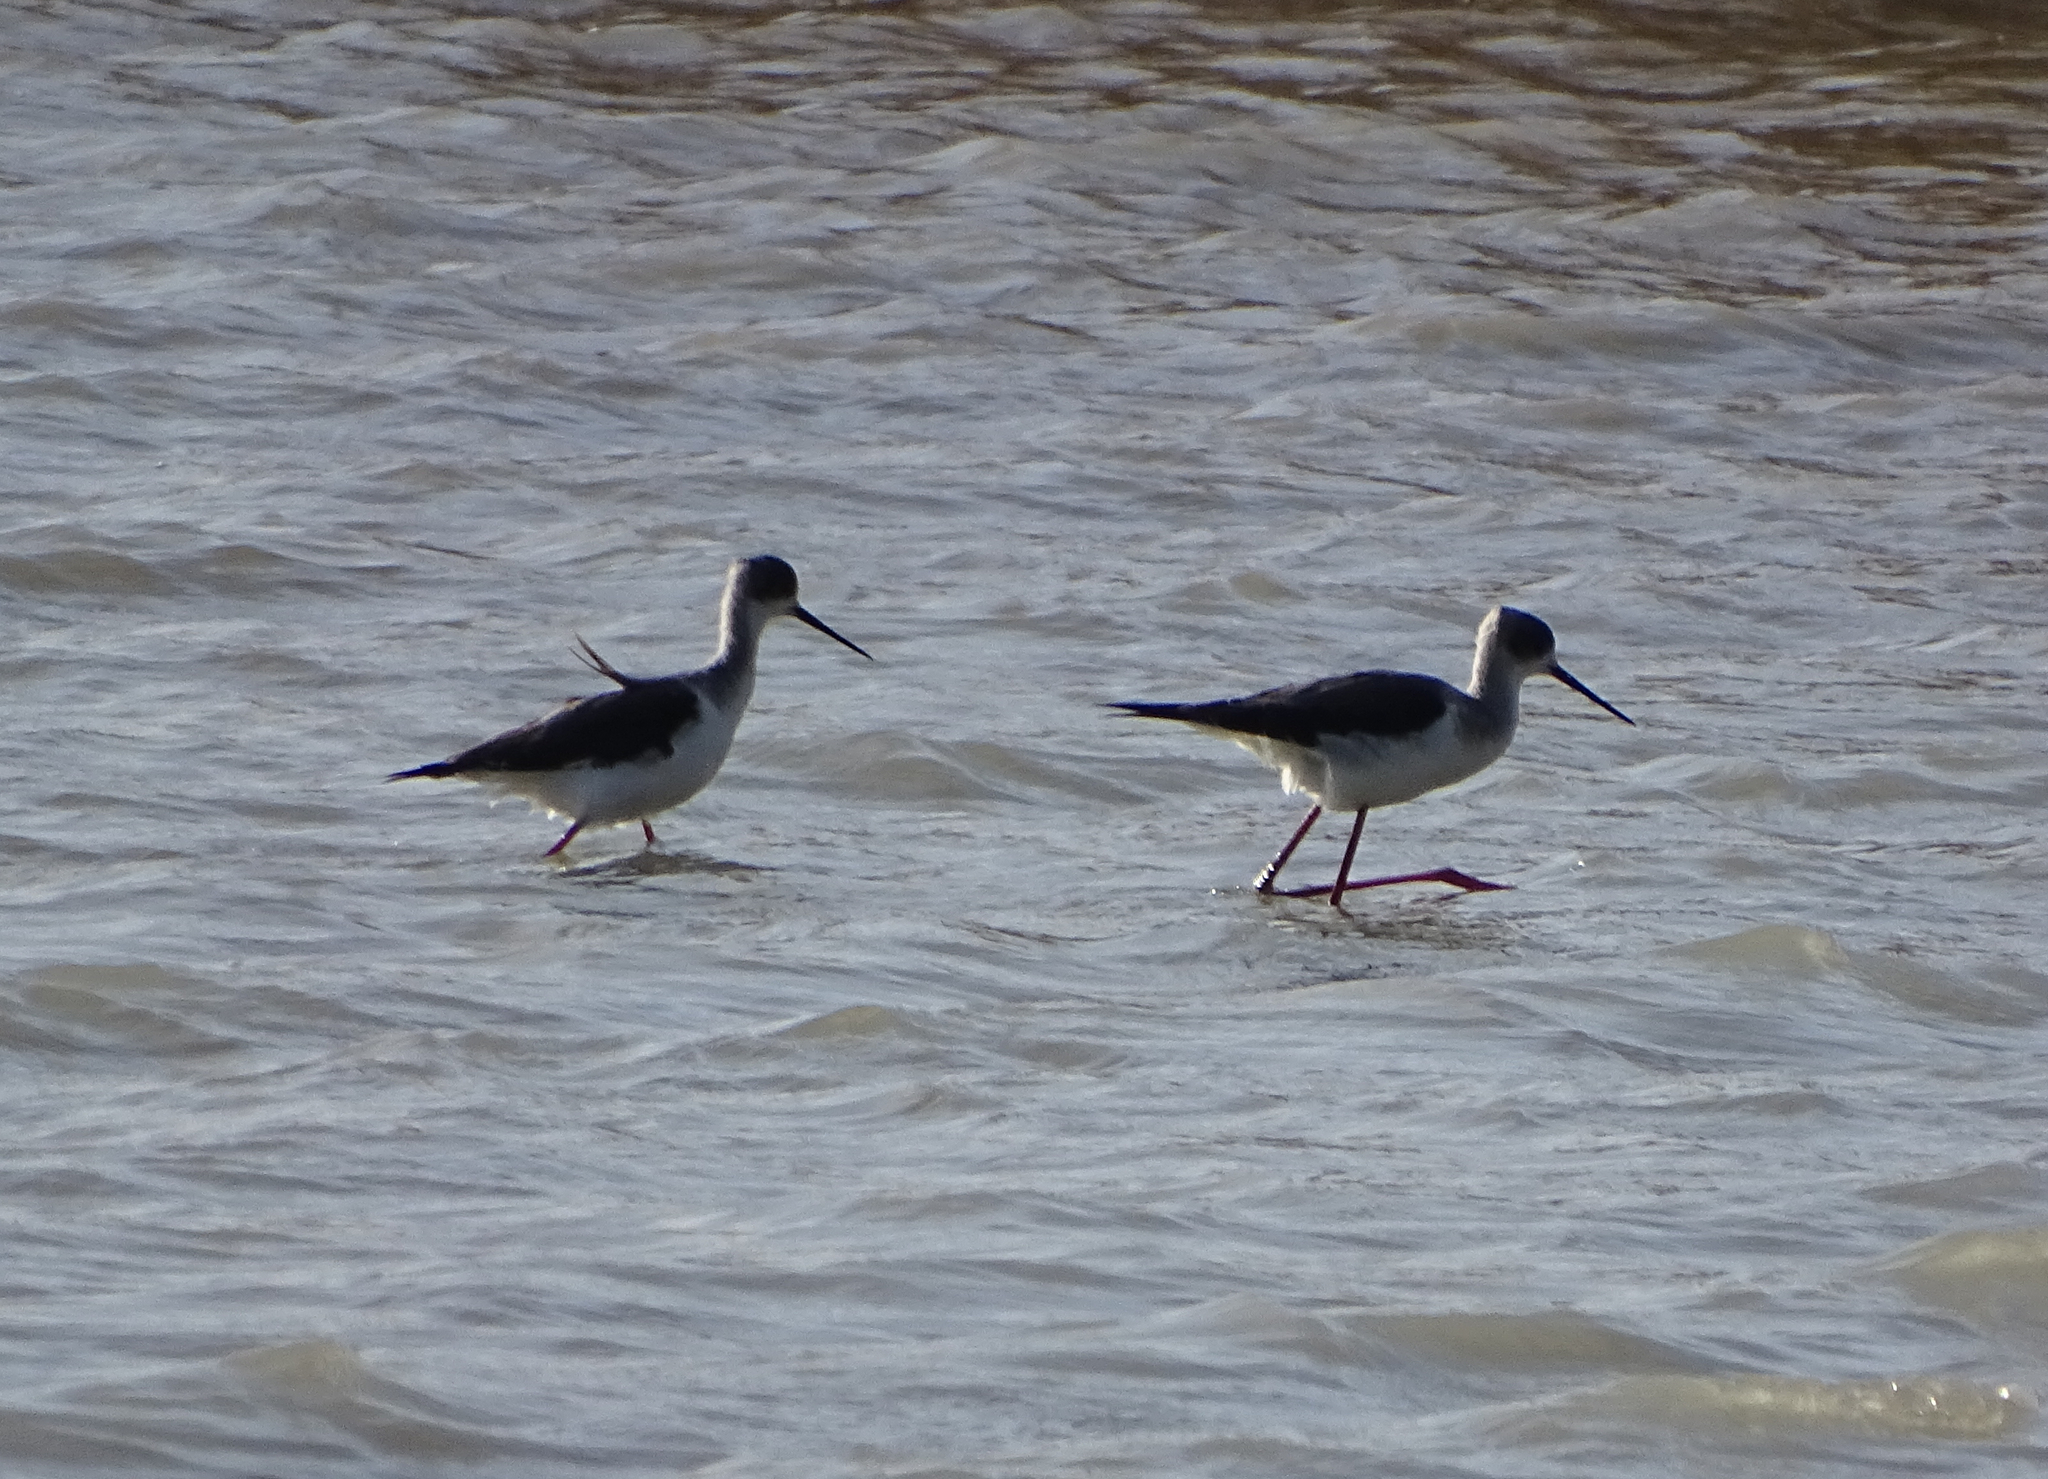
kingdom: Animalia
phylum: Chordata
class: Aves
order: Charadriiformes
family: Recurvirostridae
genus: Himantopus
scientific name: Himantopus himantopus
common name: Black-winged stilt
